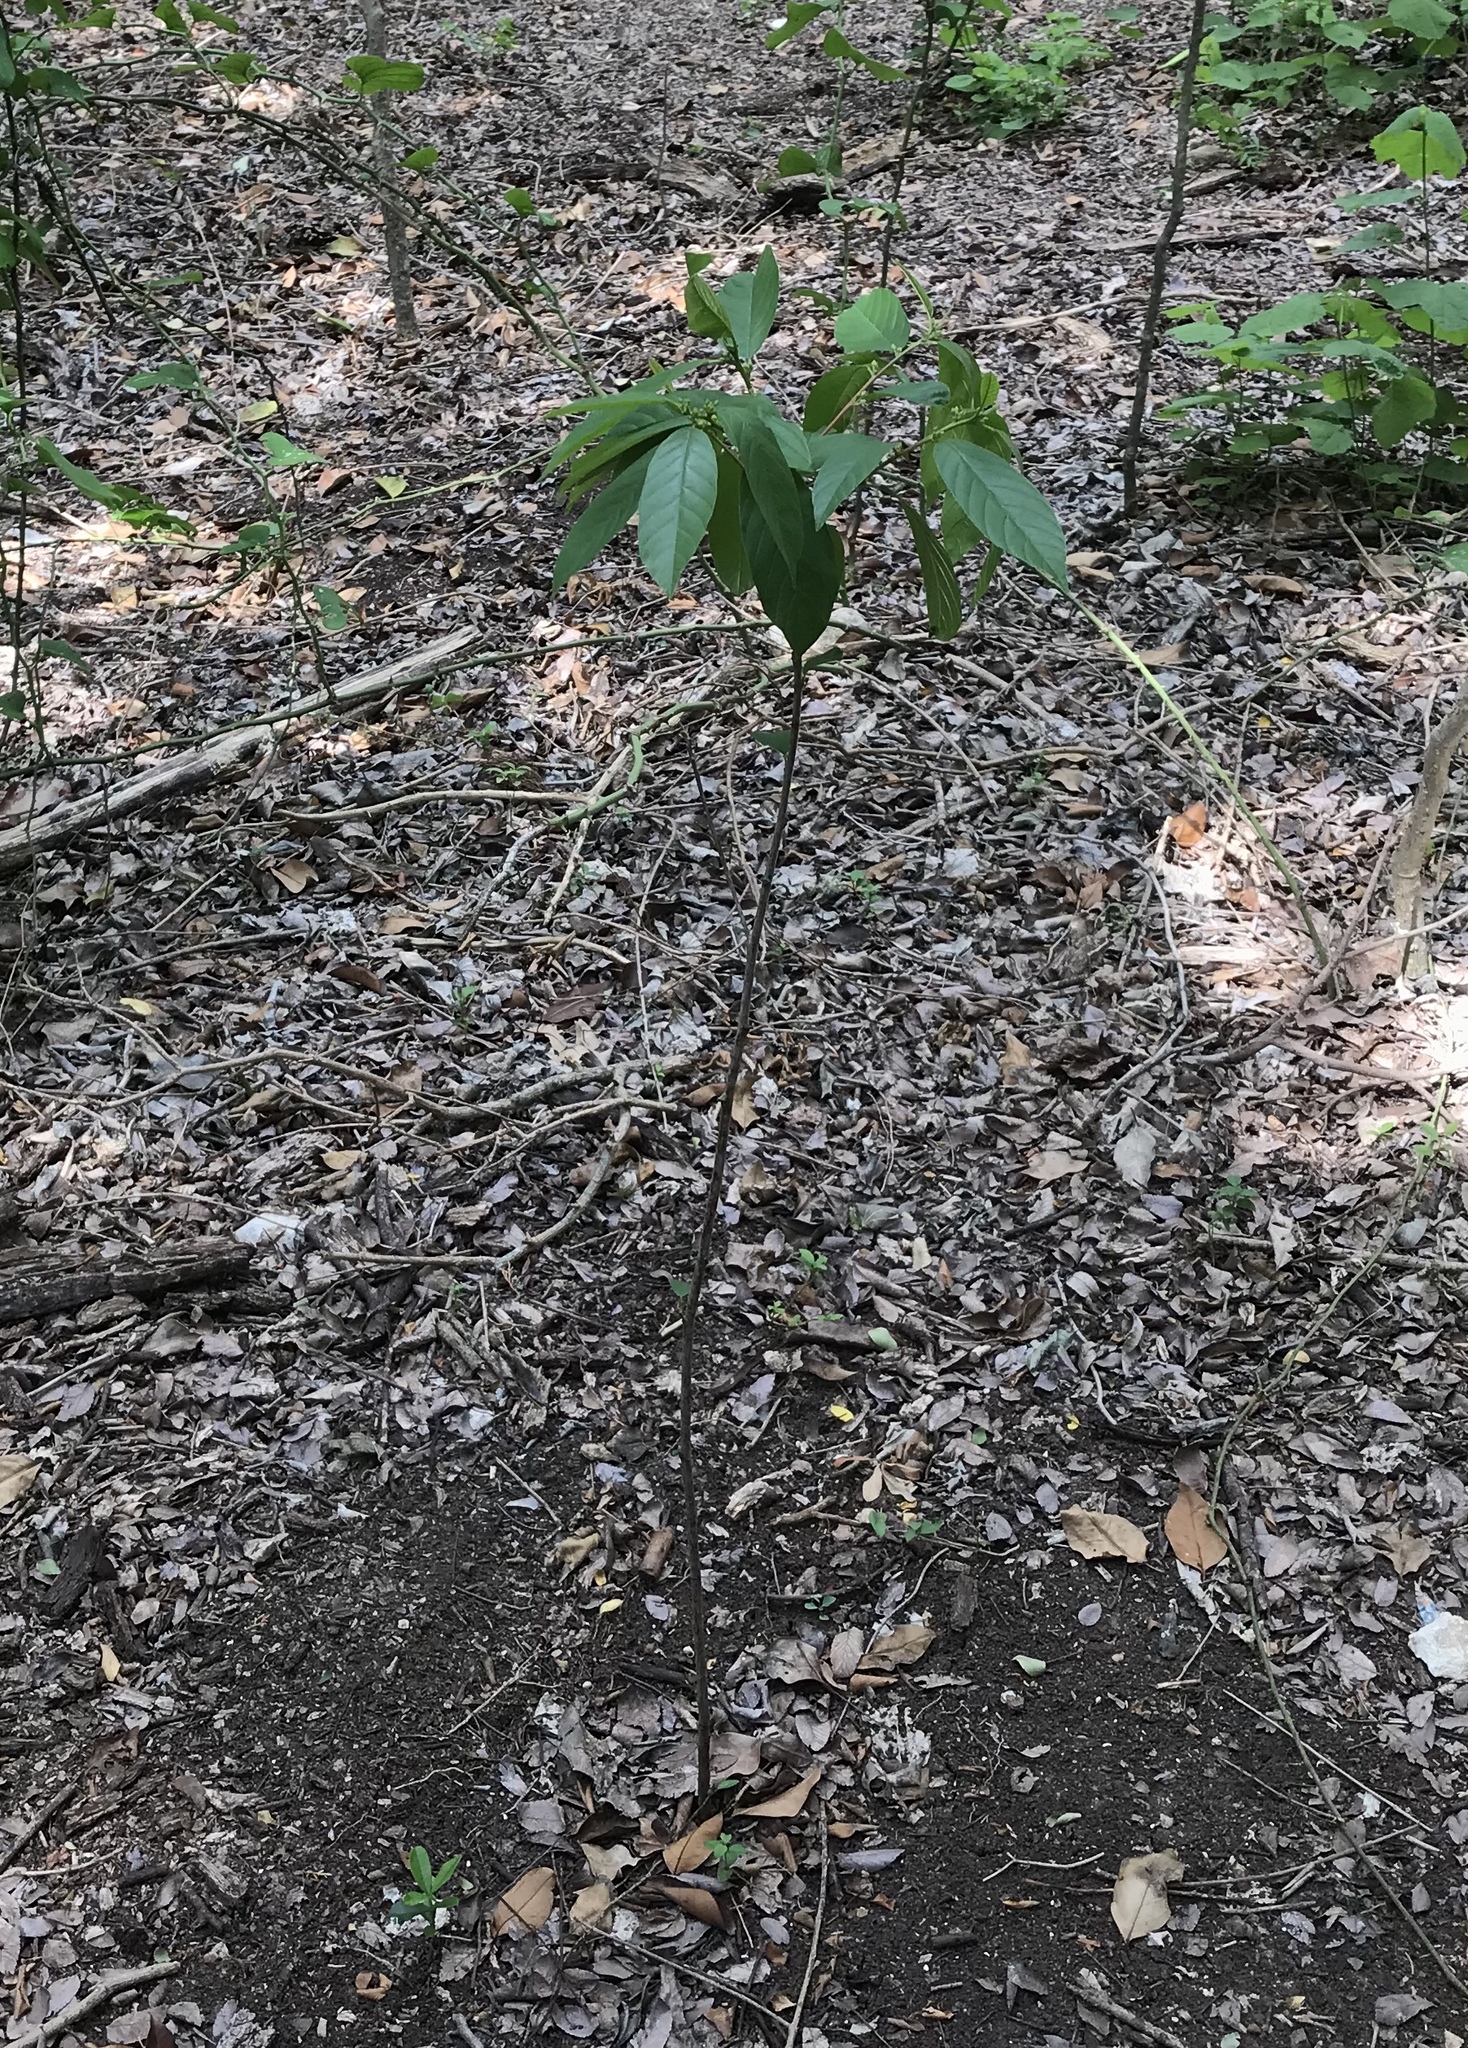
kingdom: Plantae
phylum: Tracheophyta
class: Magnoliopsida
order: Rosales
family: Rhamnaceae
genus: Frangula
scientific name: Frangula caroliniana
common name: Carolina buckthorn
